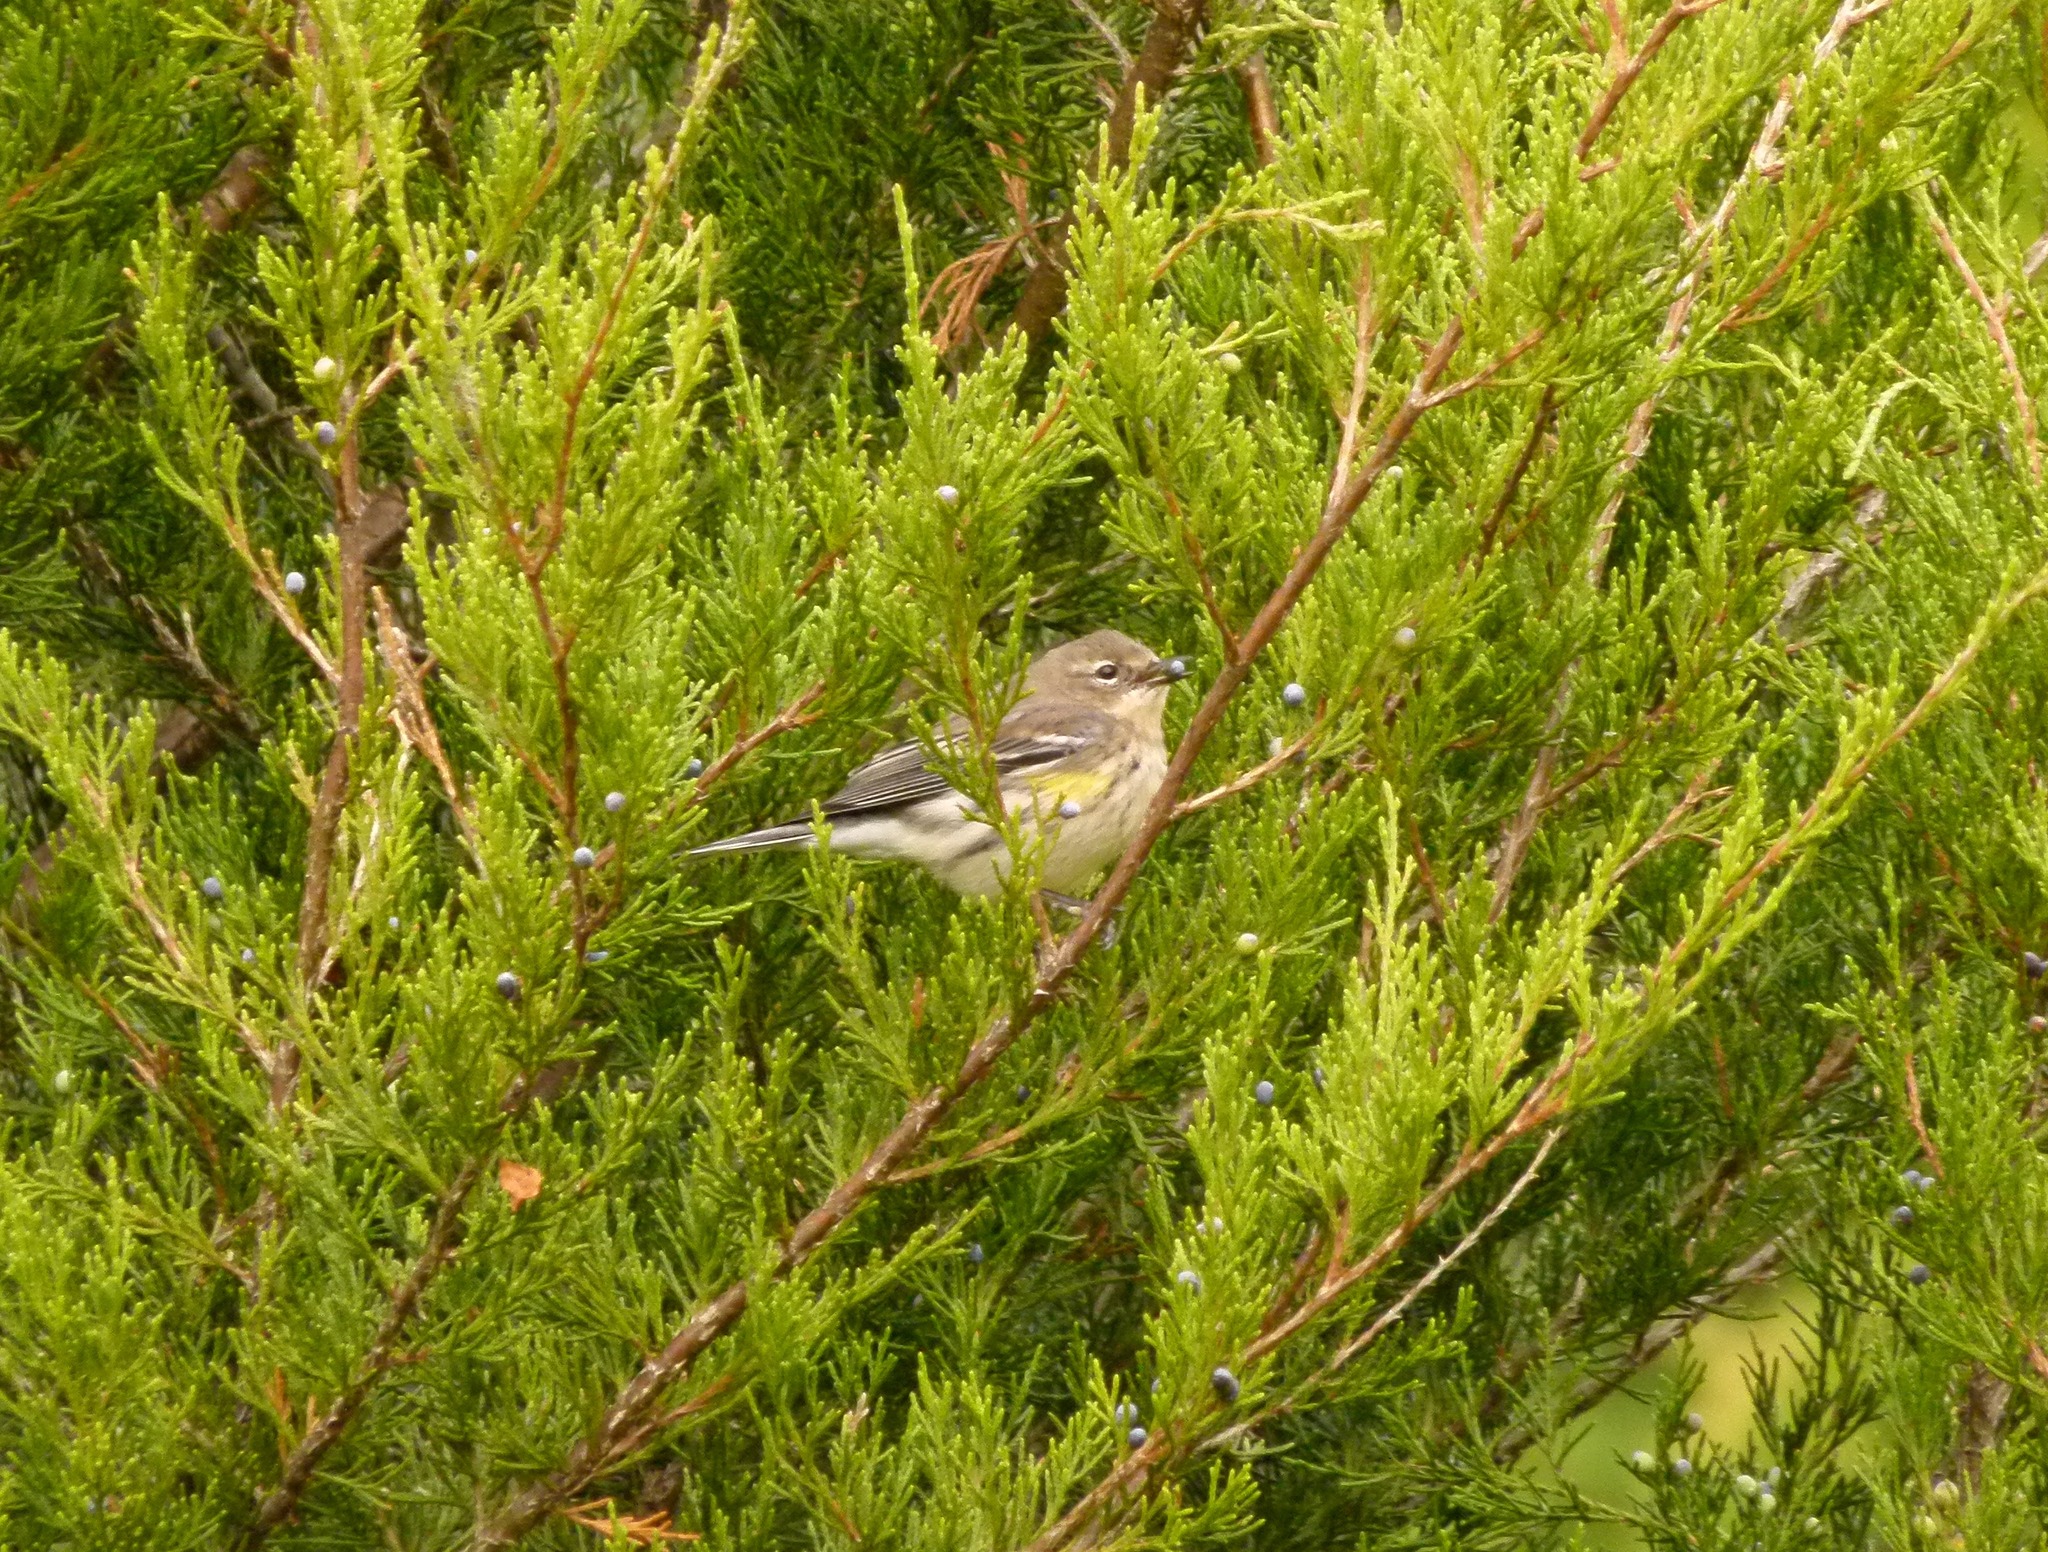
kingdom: Animalia
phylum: Chordata
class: Aves
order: Passeriformes
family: Parulidae
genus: Setophaga
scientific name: Setophaga coronata
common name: Myrtle warbler
